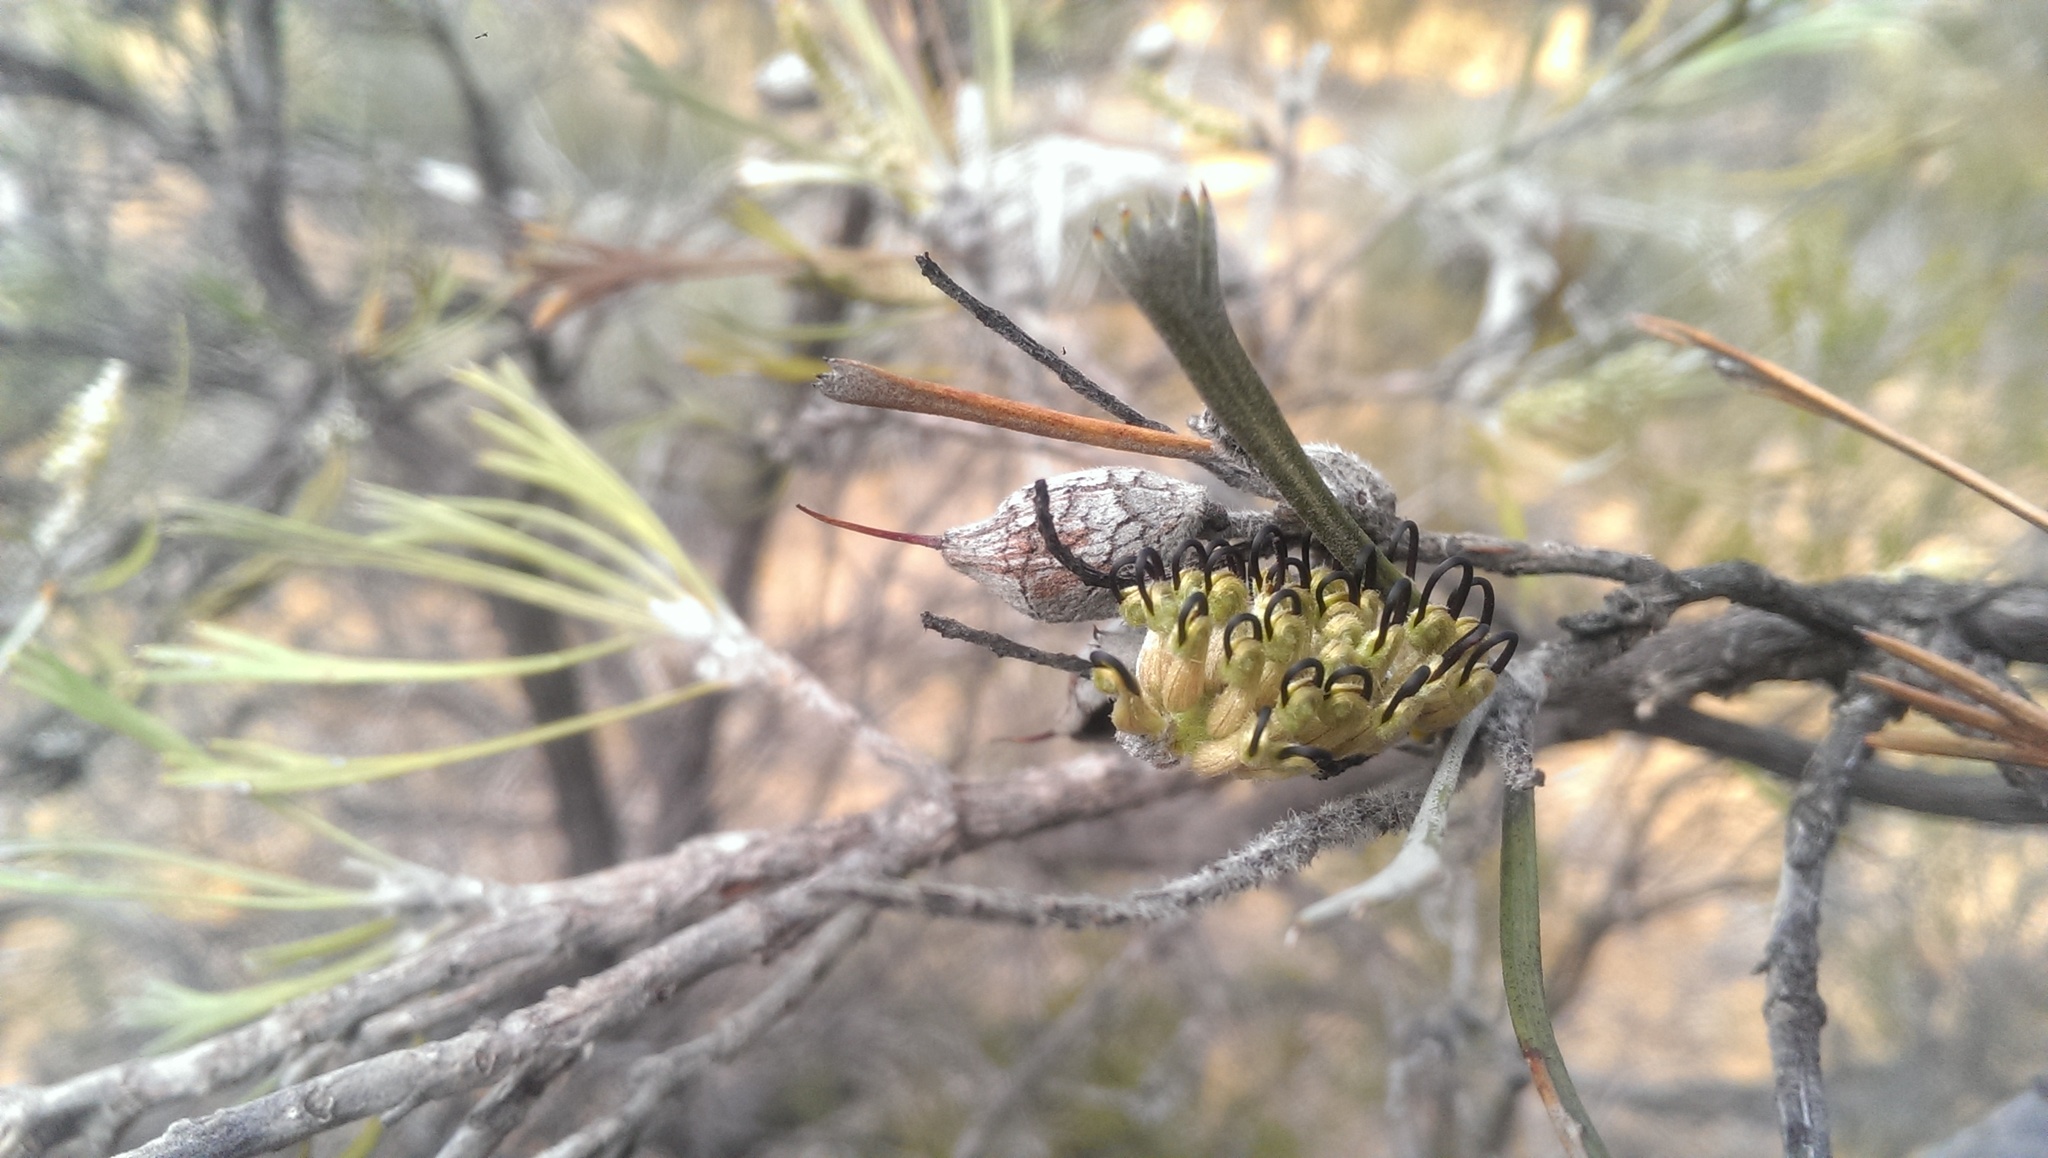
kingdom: Plantae
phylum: Tracheophyta
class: Magnoliopsida
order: Proteales
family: Proteaceae
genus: Grevillea
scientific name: Grevillea hookeriana
